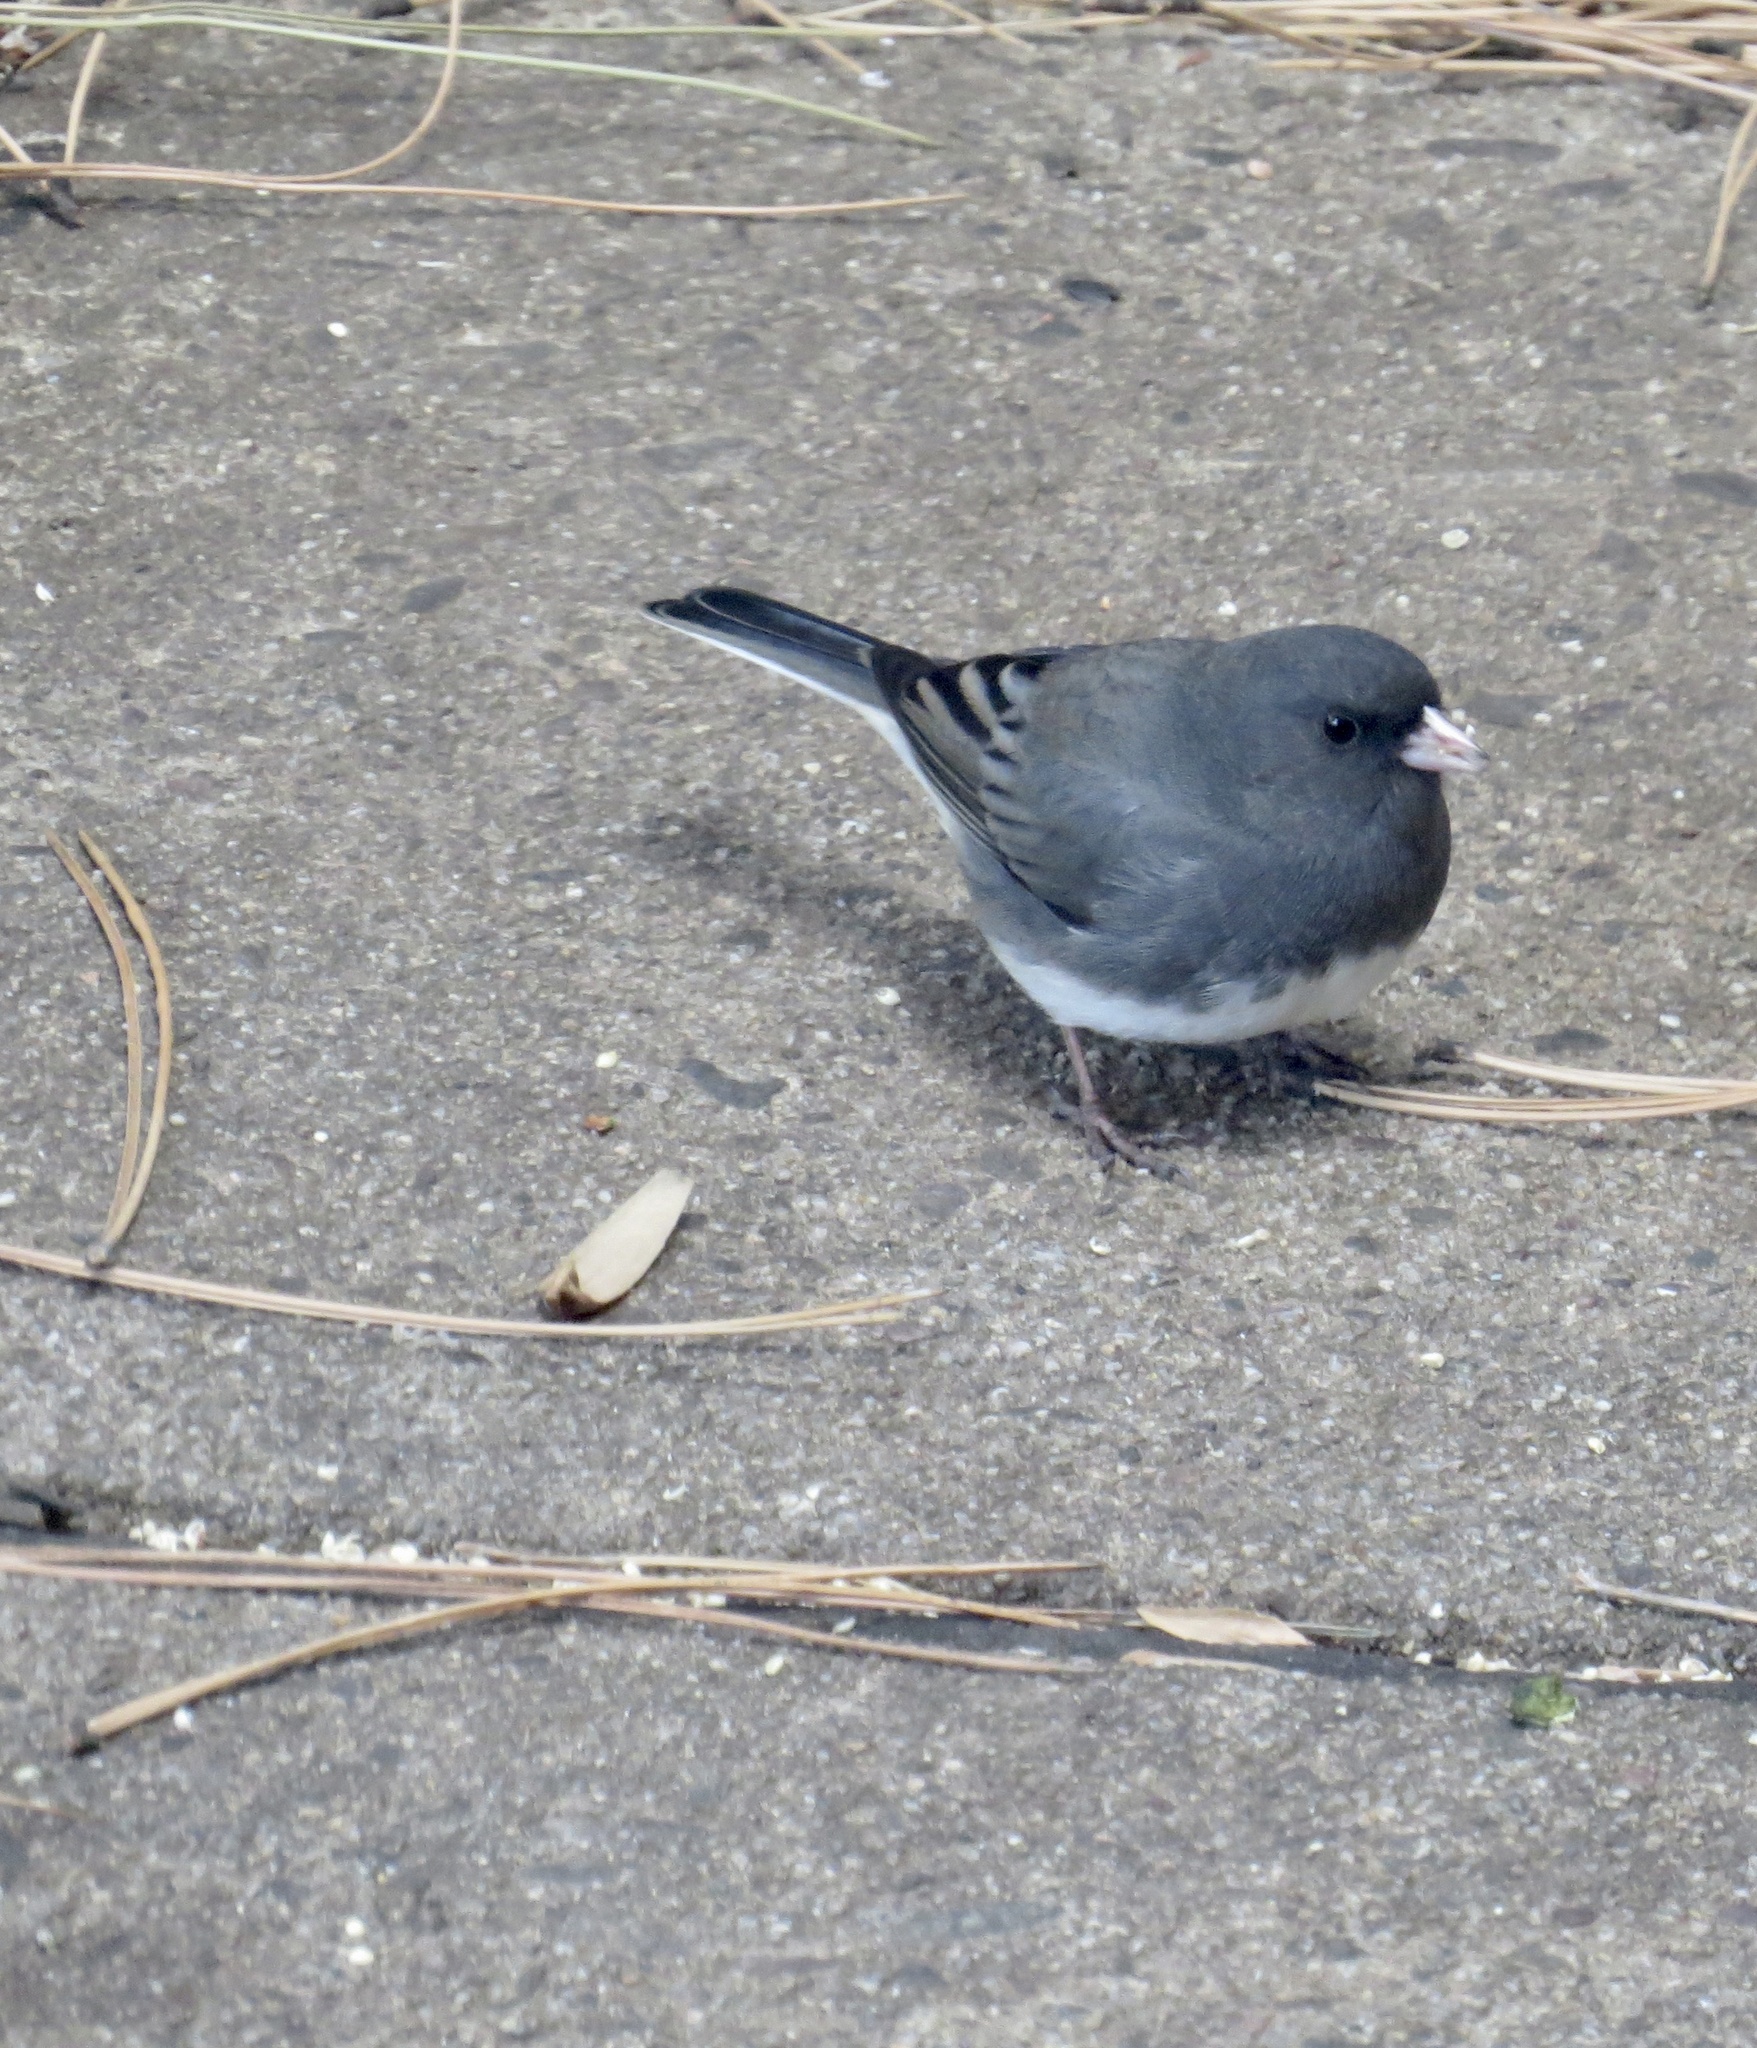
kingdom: Animalia
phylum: Chordata
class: Aves
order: Passeriformes
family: Passerellidae
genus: Junco
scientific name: Junco hyemalis
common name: Dark-eyed junco
